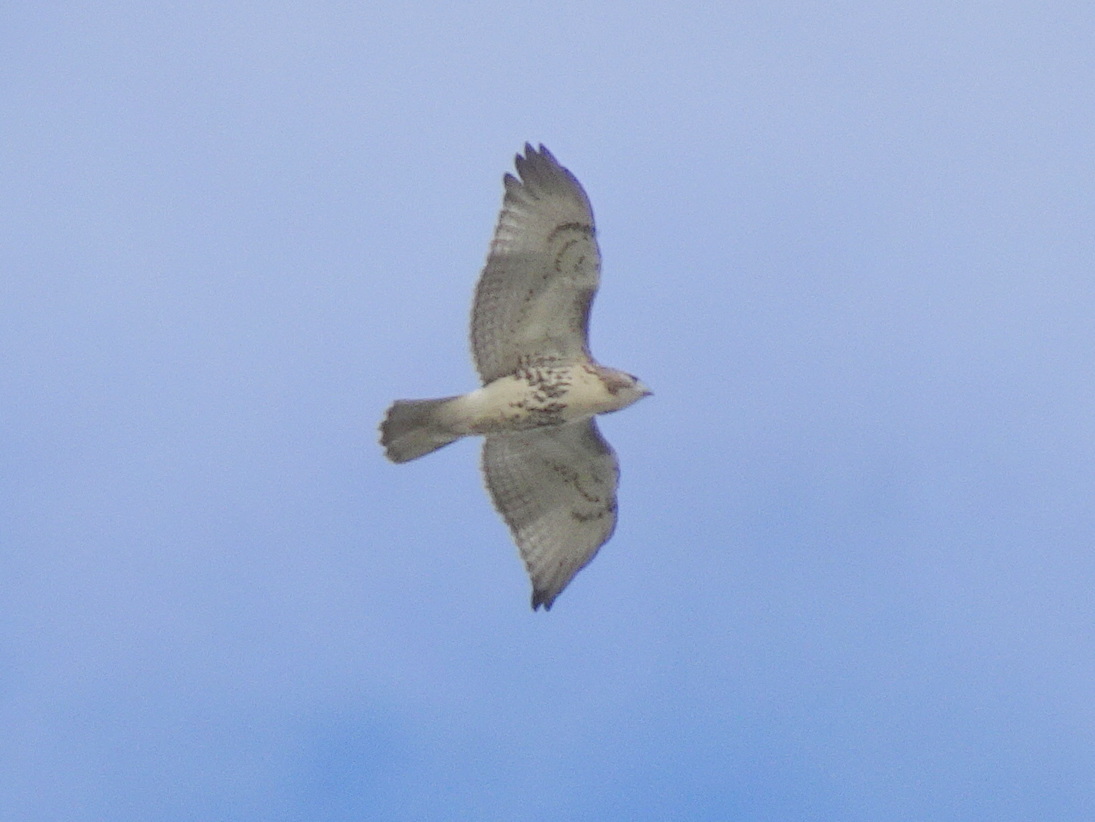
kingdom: Animalia
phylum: Chordata
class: Aves
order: Accipitriformes
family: Accipitridae
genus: Buteo
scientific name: Buteo jamaicensis
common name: Red-tailed hawk
